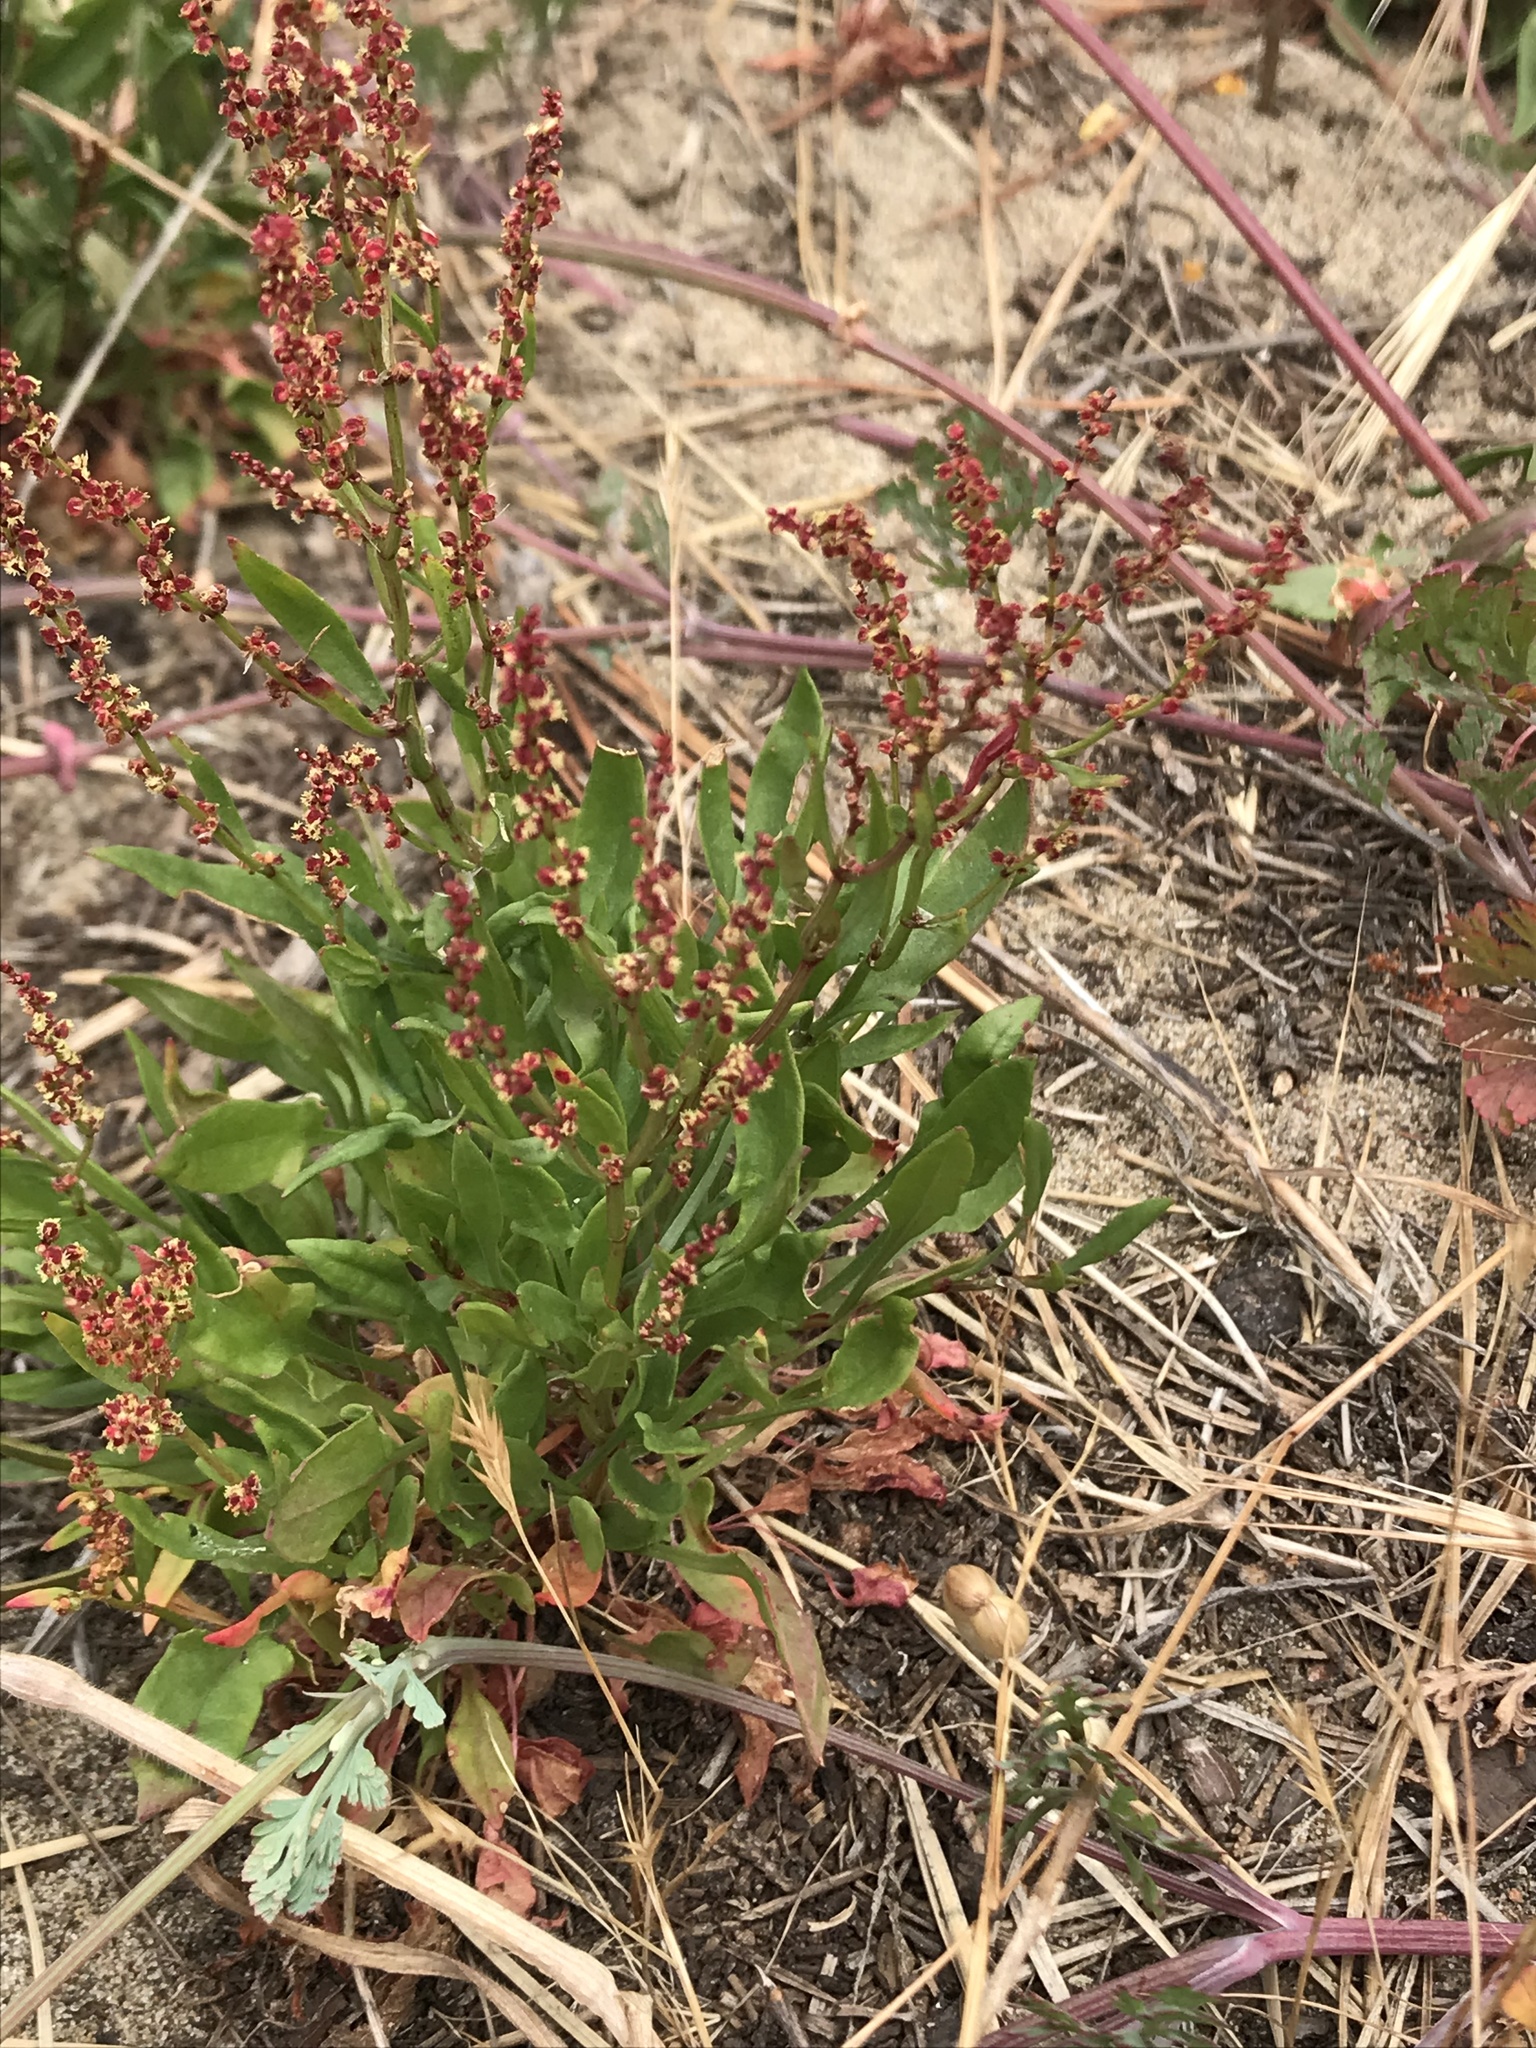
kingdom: Plantae
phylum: Tracheophyta
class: Magnoliopsida
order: Caryophyllales
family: Polygonaceae
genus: Rumex
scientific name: Rumex acetosella
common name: Common sheep sorrel
